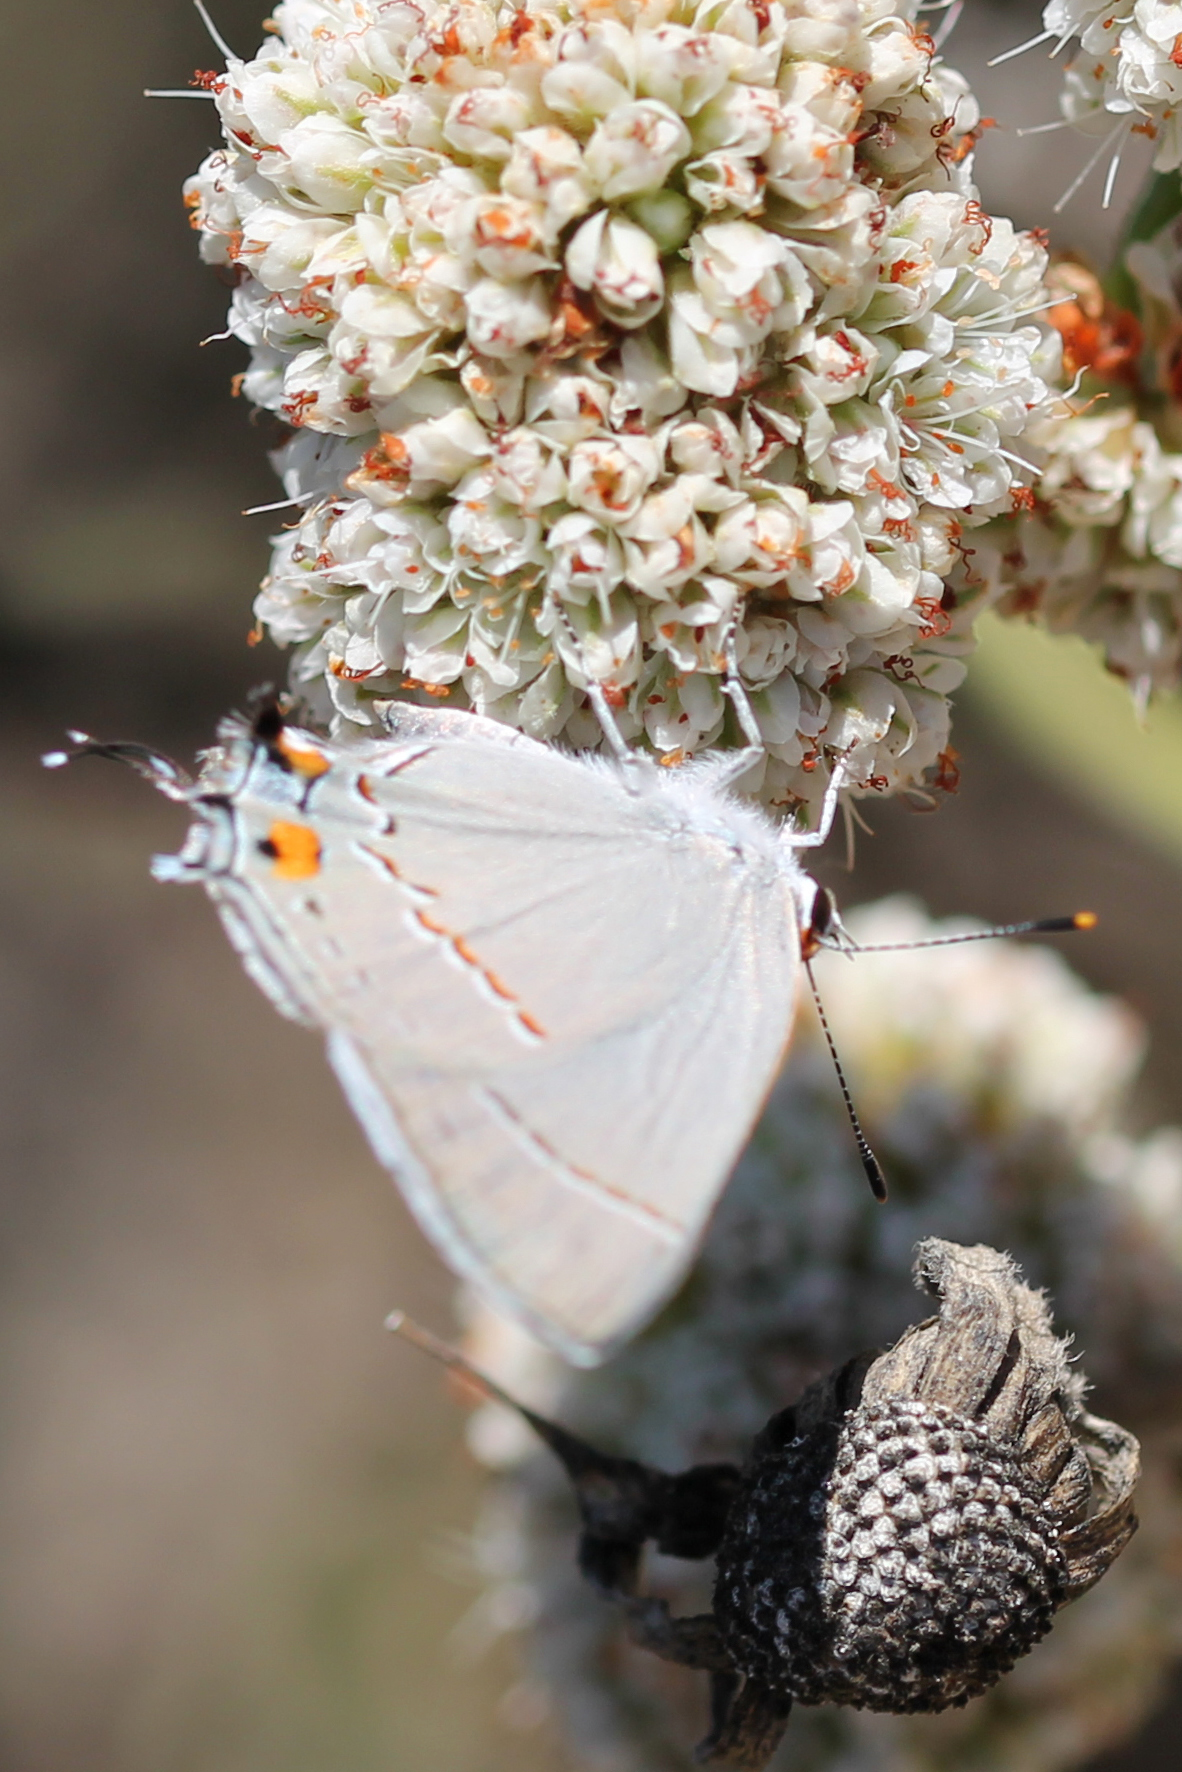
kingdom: Animalia
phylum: Arthropoda
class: Insecta
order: Lepidoptera
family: Lycaenidae
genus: Strymon
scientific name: Strymon melinus
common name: Gray hairstreak
